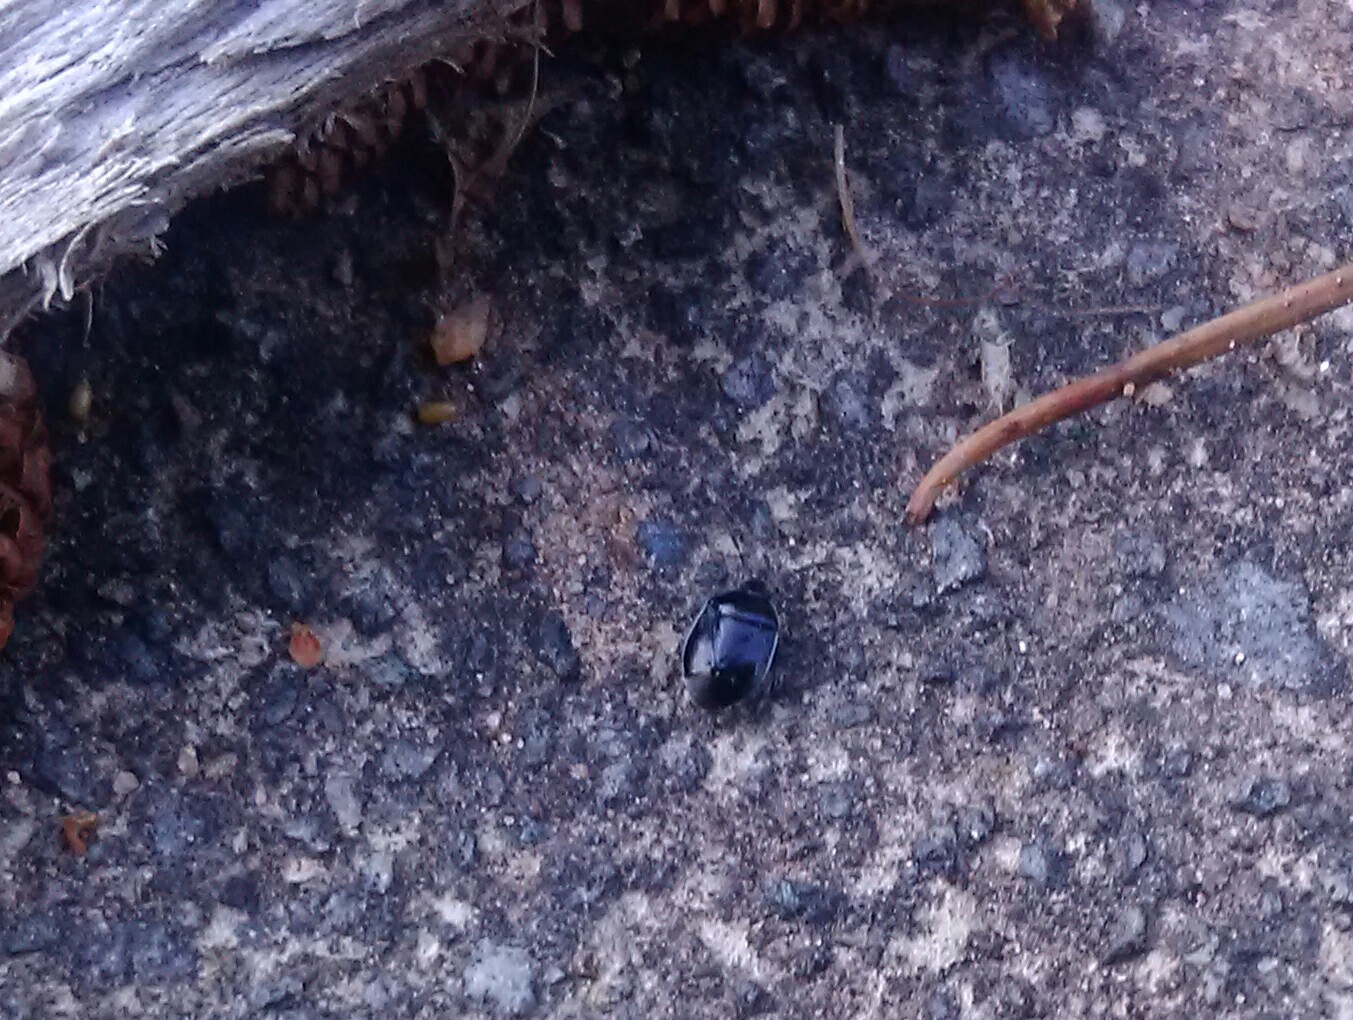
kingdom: Animalia
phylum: Arthropoda
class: Insecta
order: Hemiptera
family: Cydnidae
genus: Sehirus
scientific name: Sehirus cinctus
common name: White-margined burrower bug
